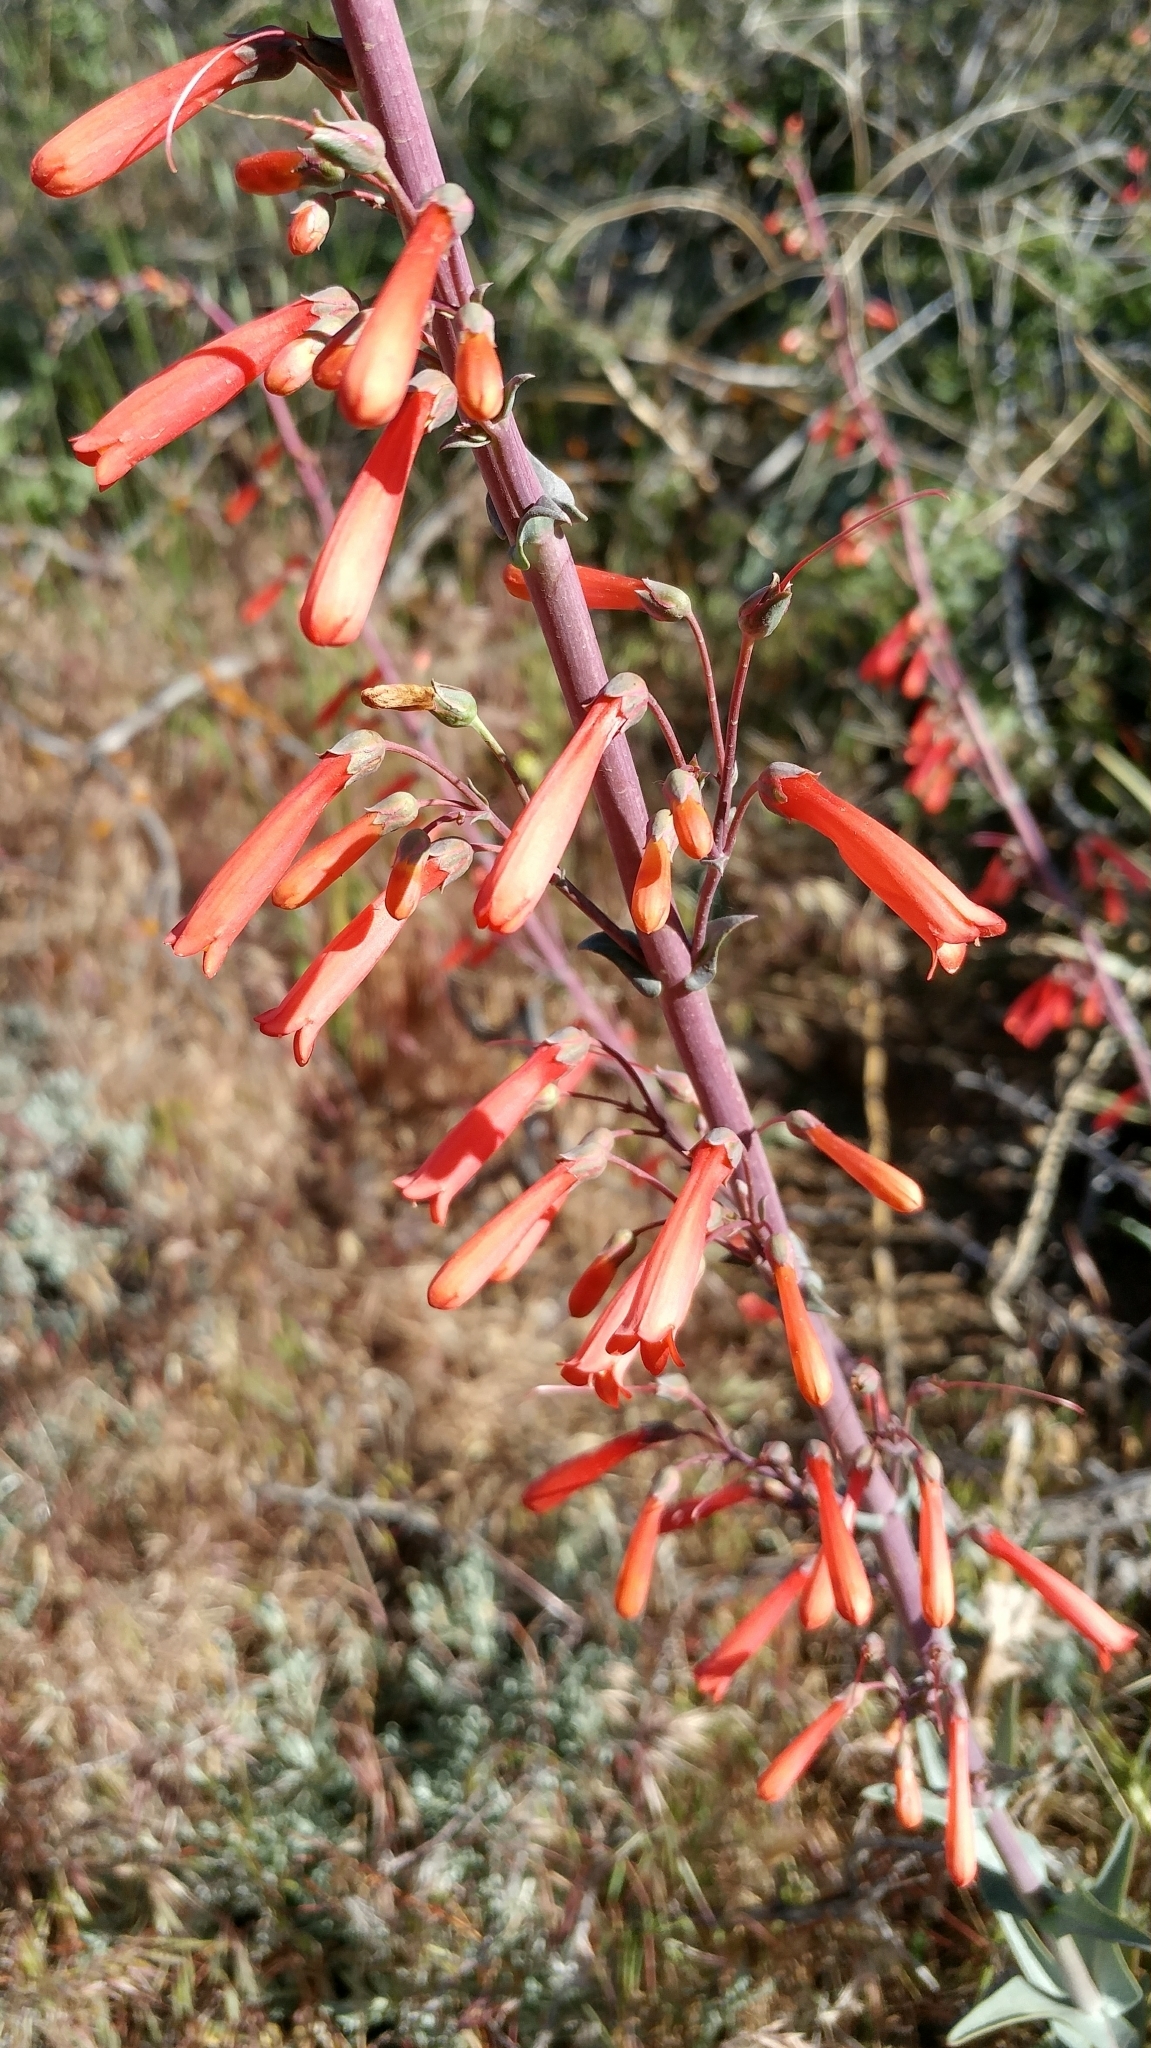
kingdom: Plantae
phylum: Tracheophyta
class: Magnoliopsida
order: Lamiales
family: Plantaginaceae
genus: Penstemon
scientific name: Penstemon centranthifolius
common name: Scarlet bugler
